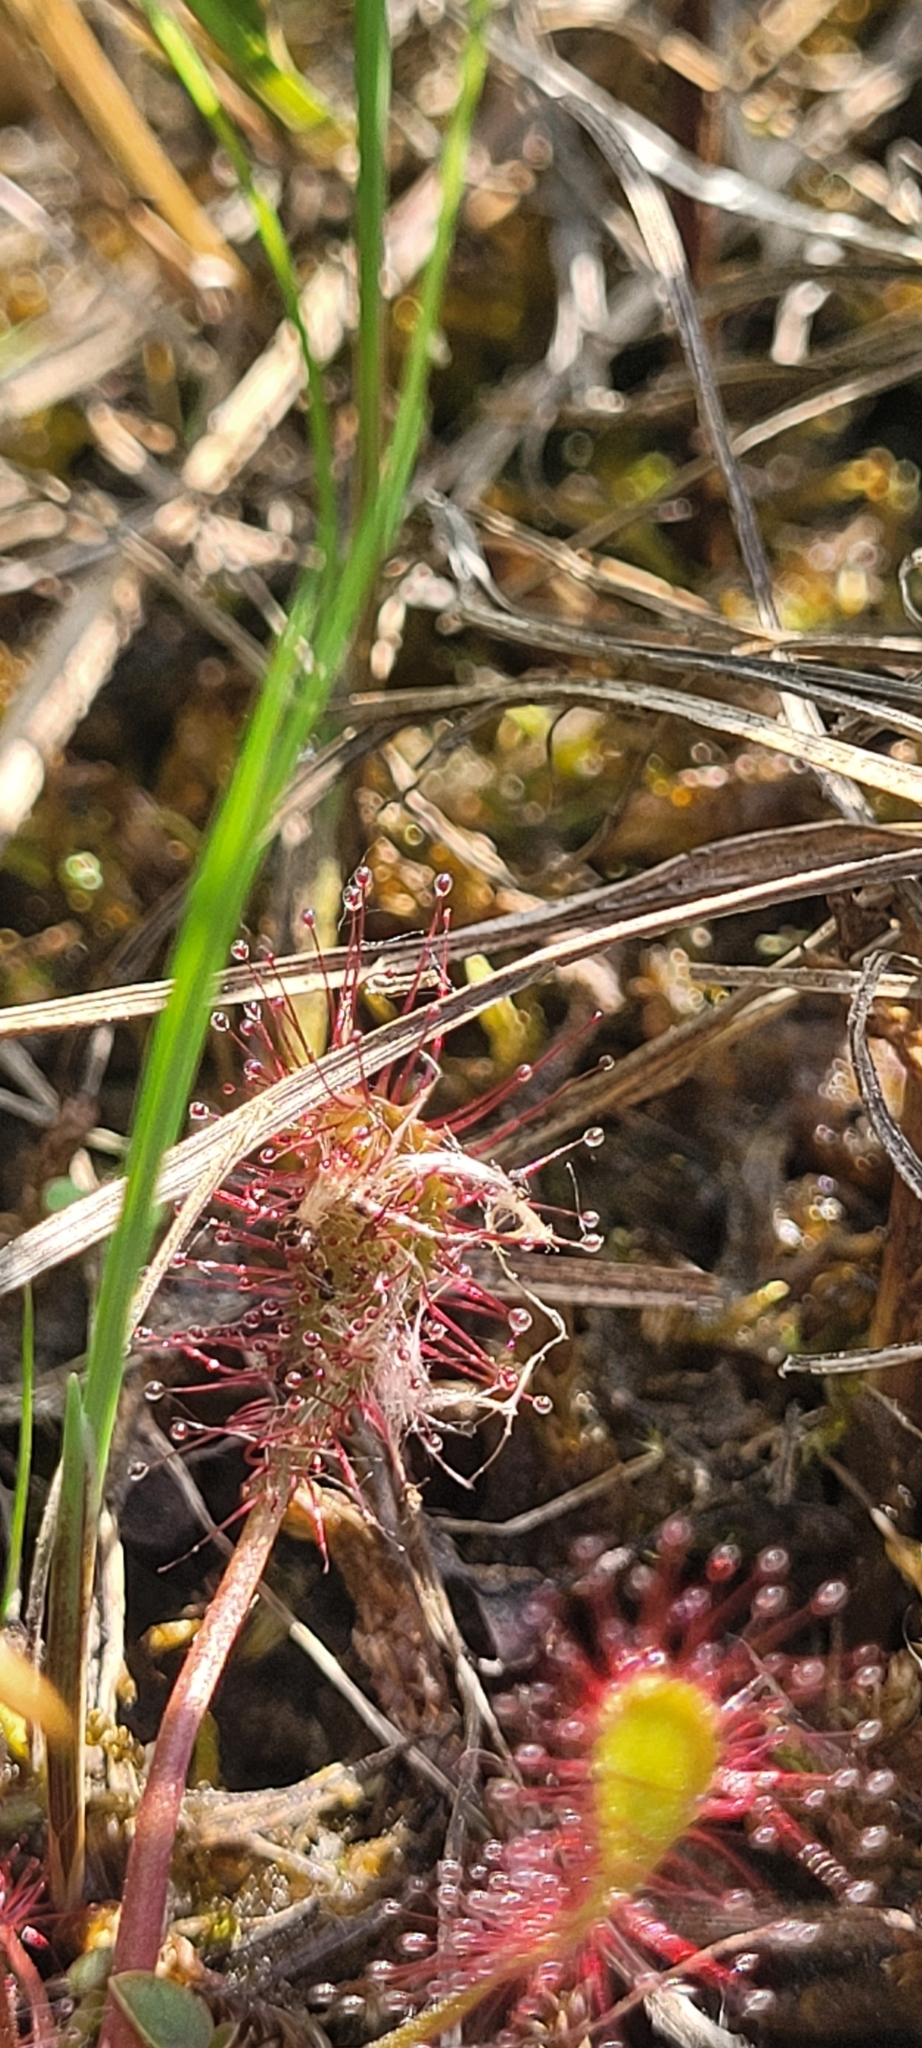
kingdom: Plantae
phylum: Tracheophyta
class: Magnoliopsida
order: Caryophyllales
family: Droseraceae
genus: Drosera
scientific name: Drosera anglica
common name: Great sundew
